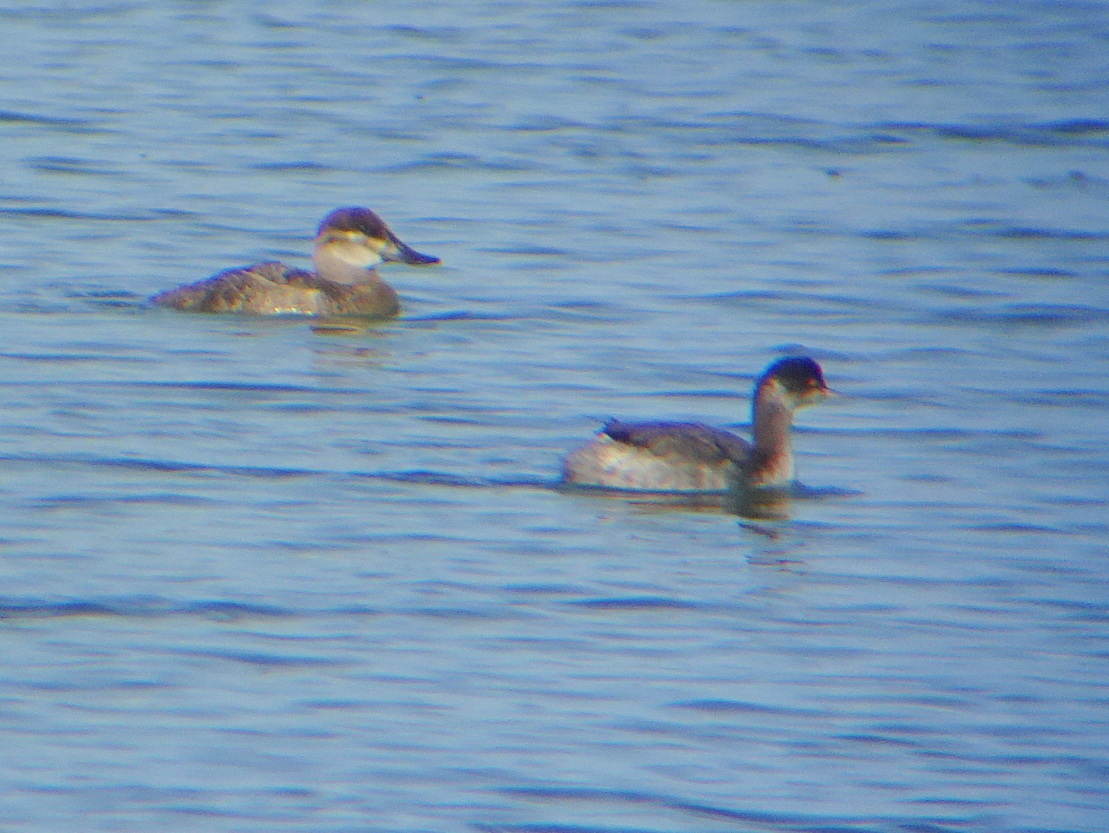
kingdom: Animalia
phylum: Chordata
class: Aves
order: Podicipediformes
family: Podicipedidae
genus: Podiceps
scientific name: Podiceps nigricollis
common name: Black-necked grebe
